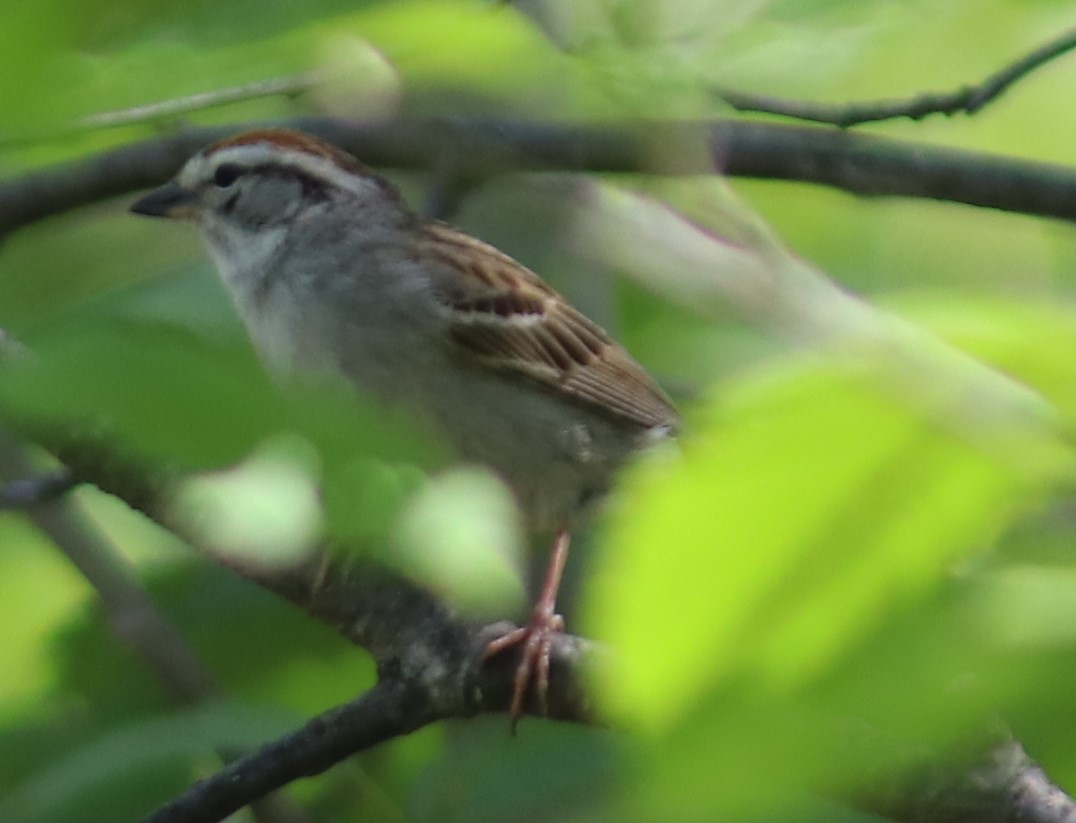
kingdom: Animalia
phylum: Chordata
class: Aves
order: Passeriformes
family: Passerellidae
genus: Spizella
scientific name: Spizella passerina
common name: Chipping sparrow
